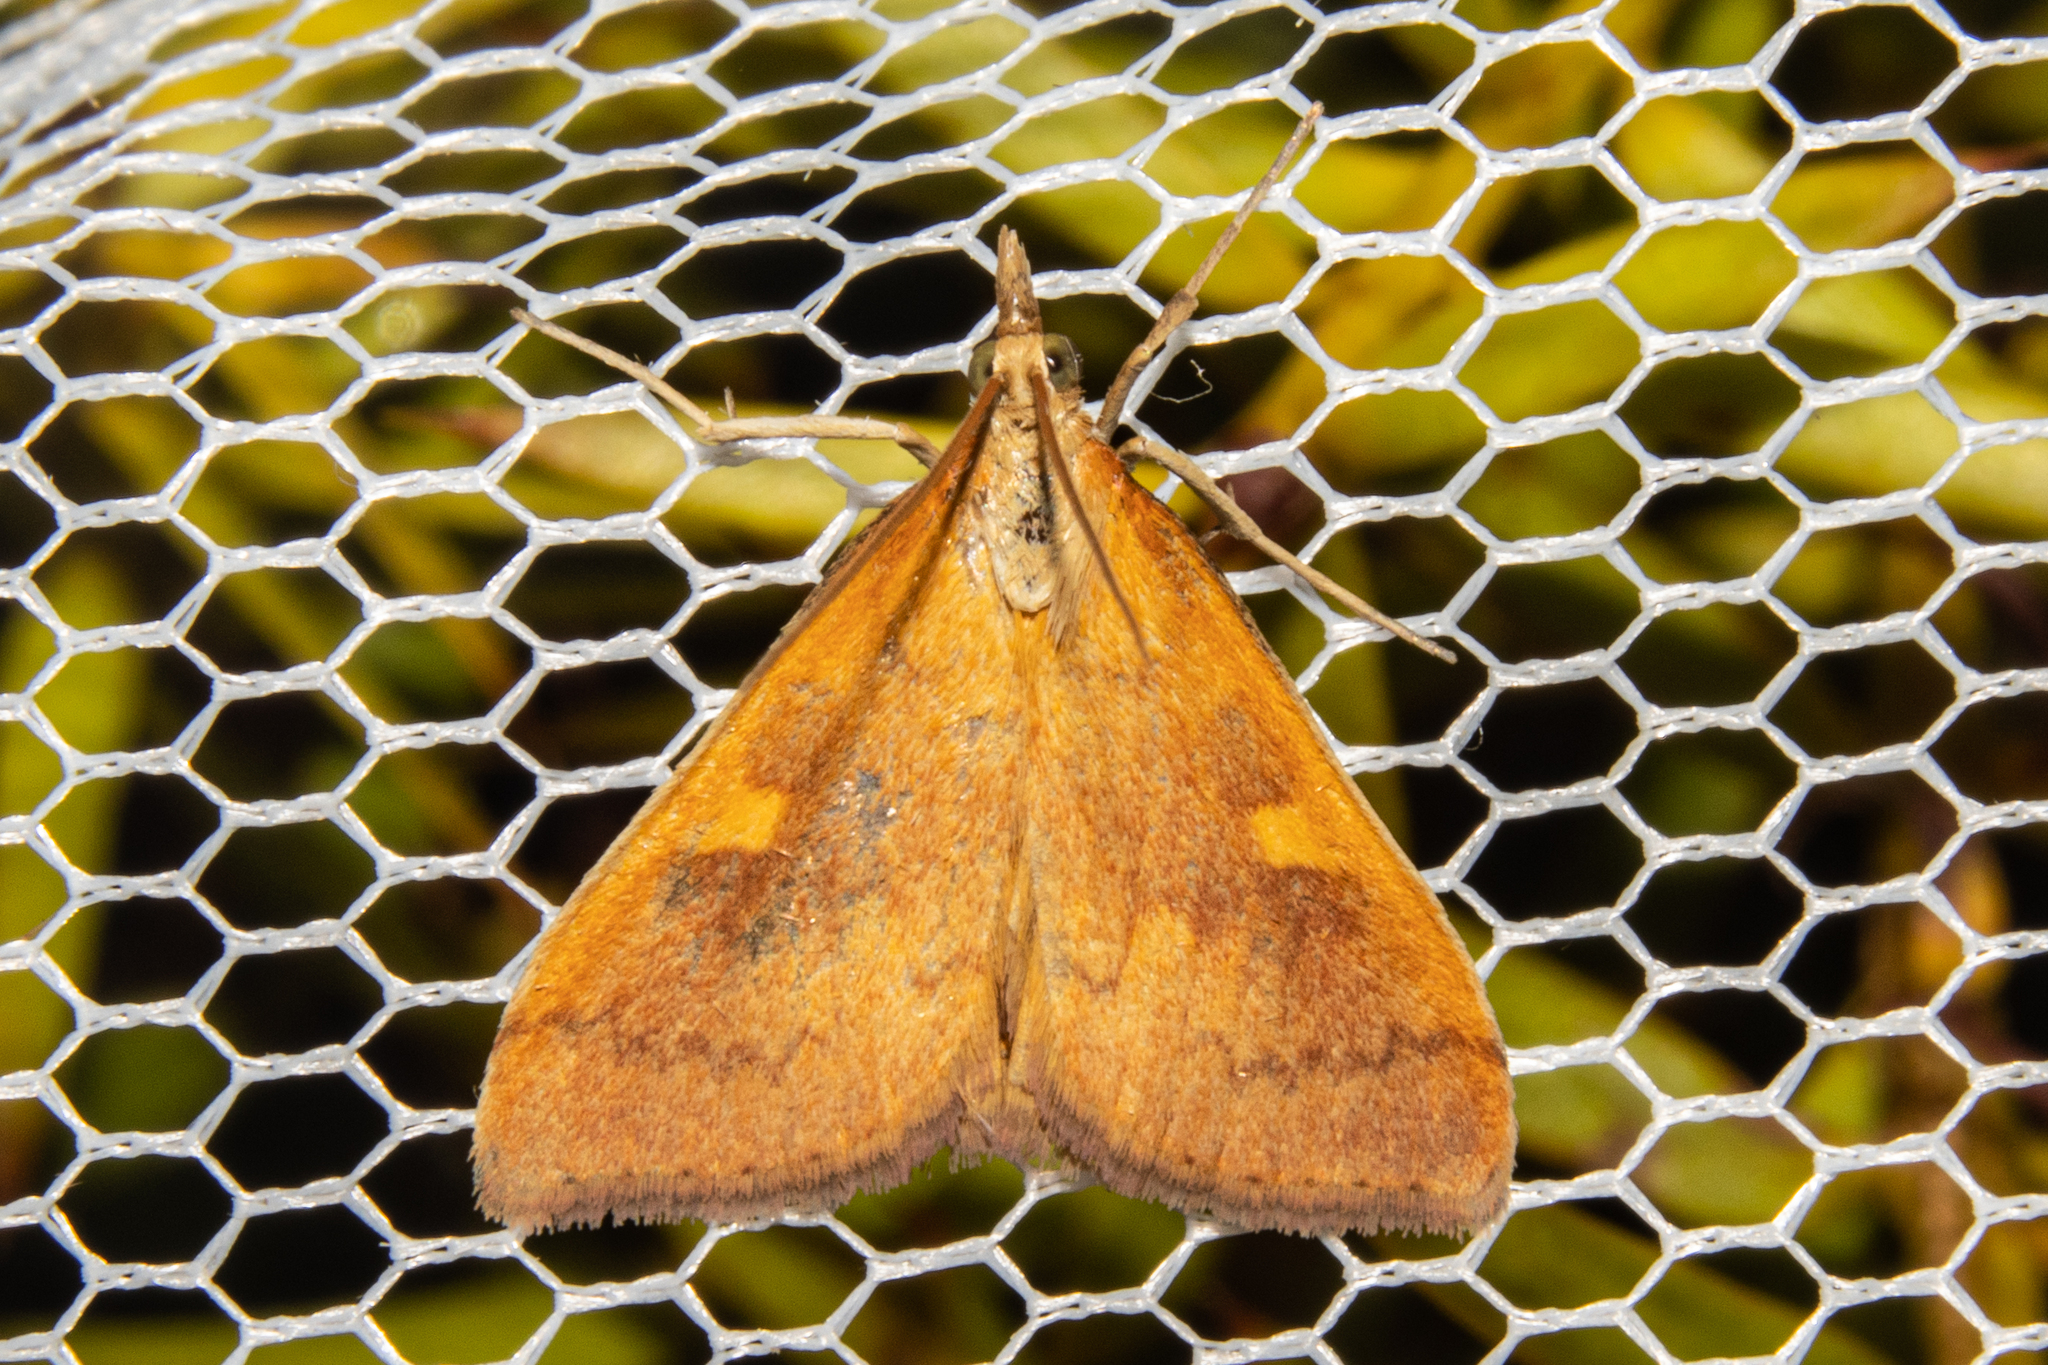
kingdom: Animalia
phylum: Arthropoda
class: Insecta
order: Lepidoptera
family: Crambidae
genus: Udea
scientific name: Udea Mnesictena flavidalis
